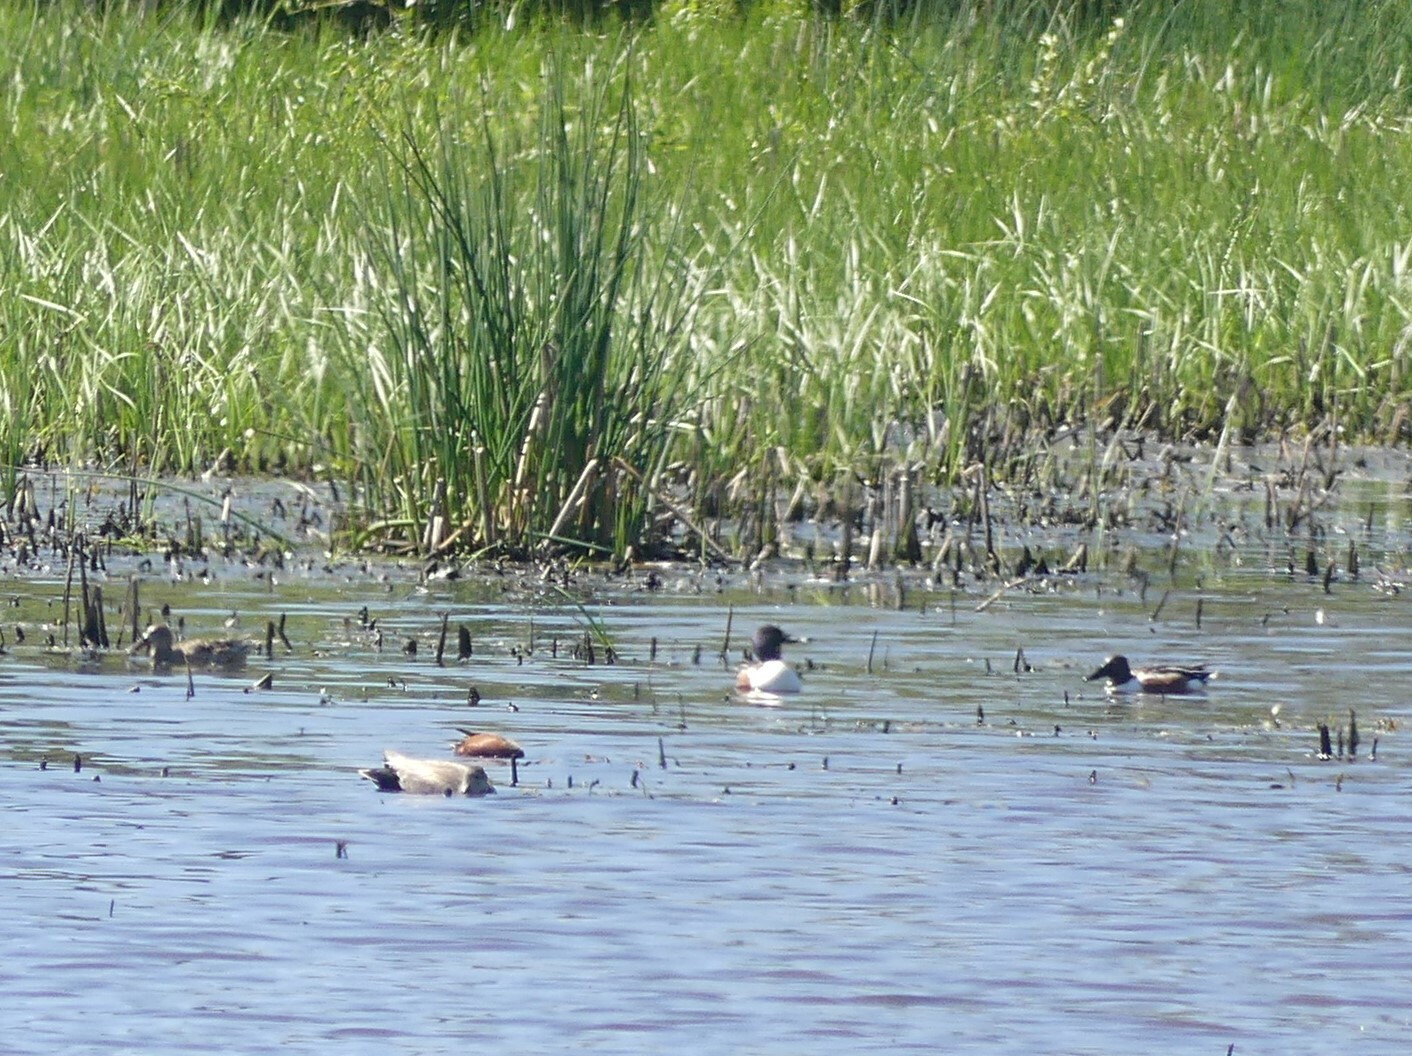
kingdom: Animalia
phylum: Chordata
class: Aves
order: Anseriformes
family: Anatidae
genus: Spatula
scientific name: Spatula clypeata
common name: Northern shoveler
